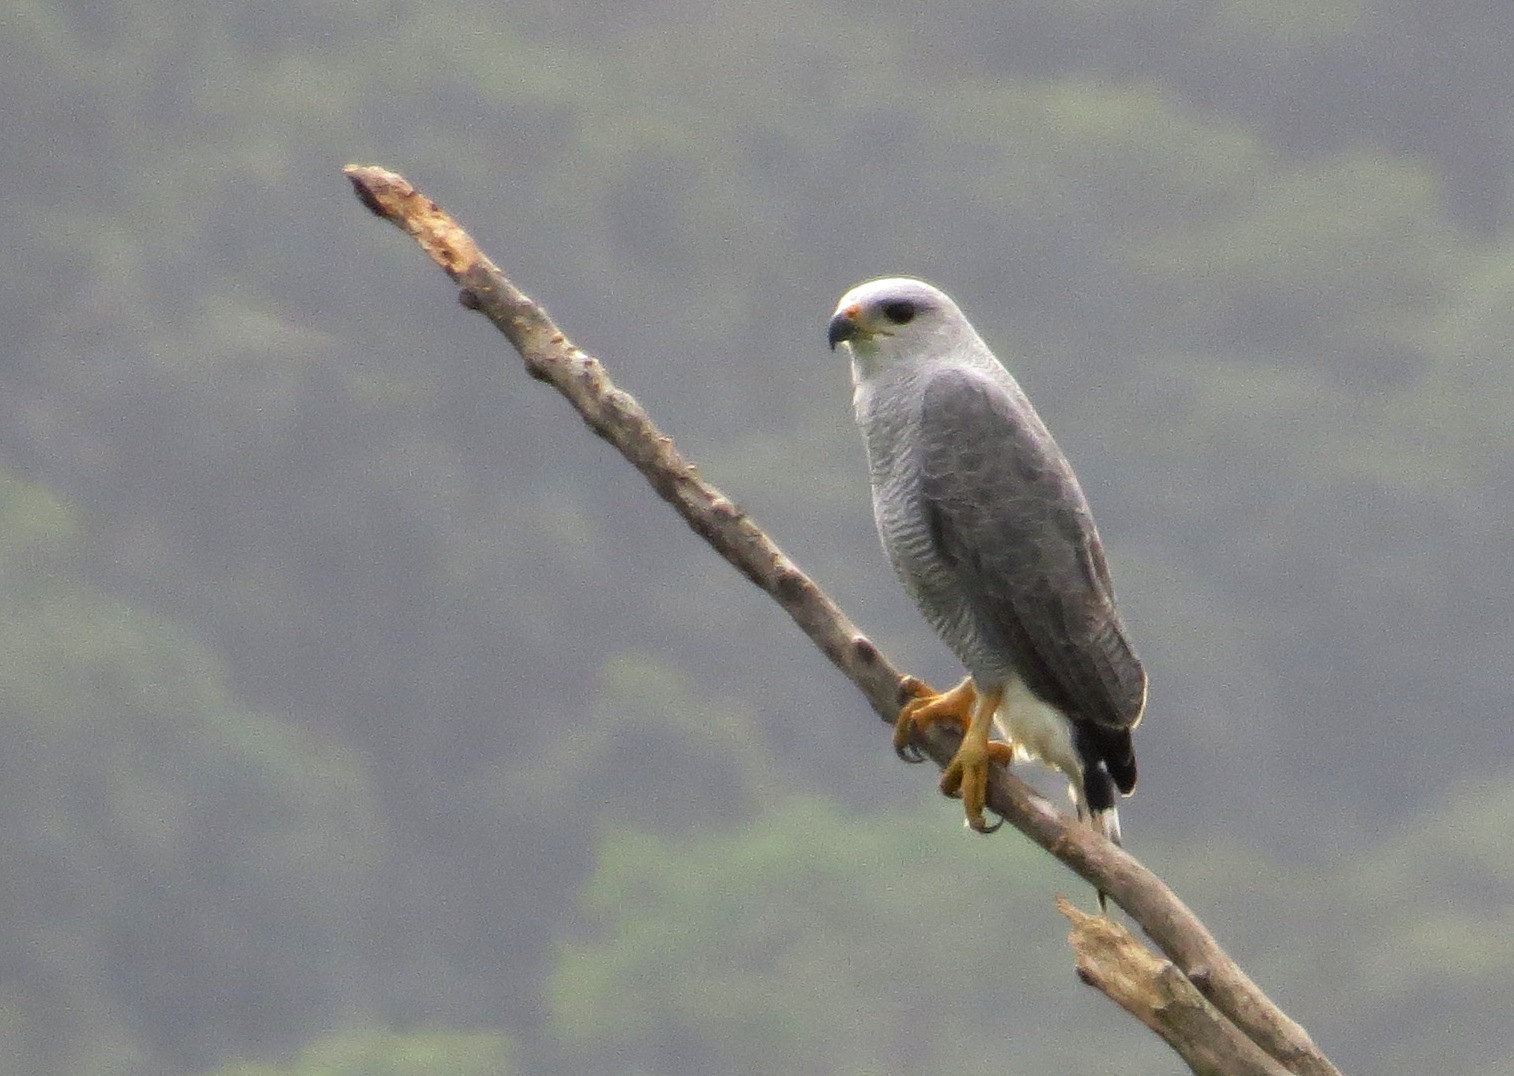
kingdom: Animalia
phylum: Chordata
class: Aves
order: Accipitriformes
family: Accipitridae
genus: Buteo
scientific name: Buteo nitidus
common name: Grey-lined hawk
